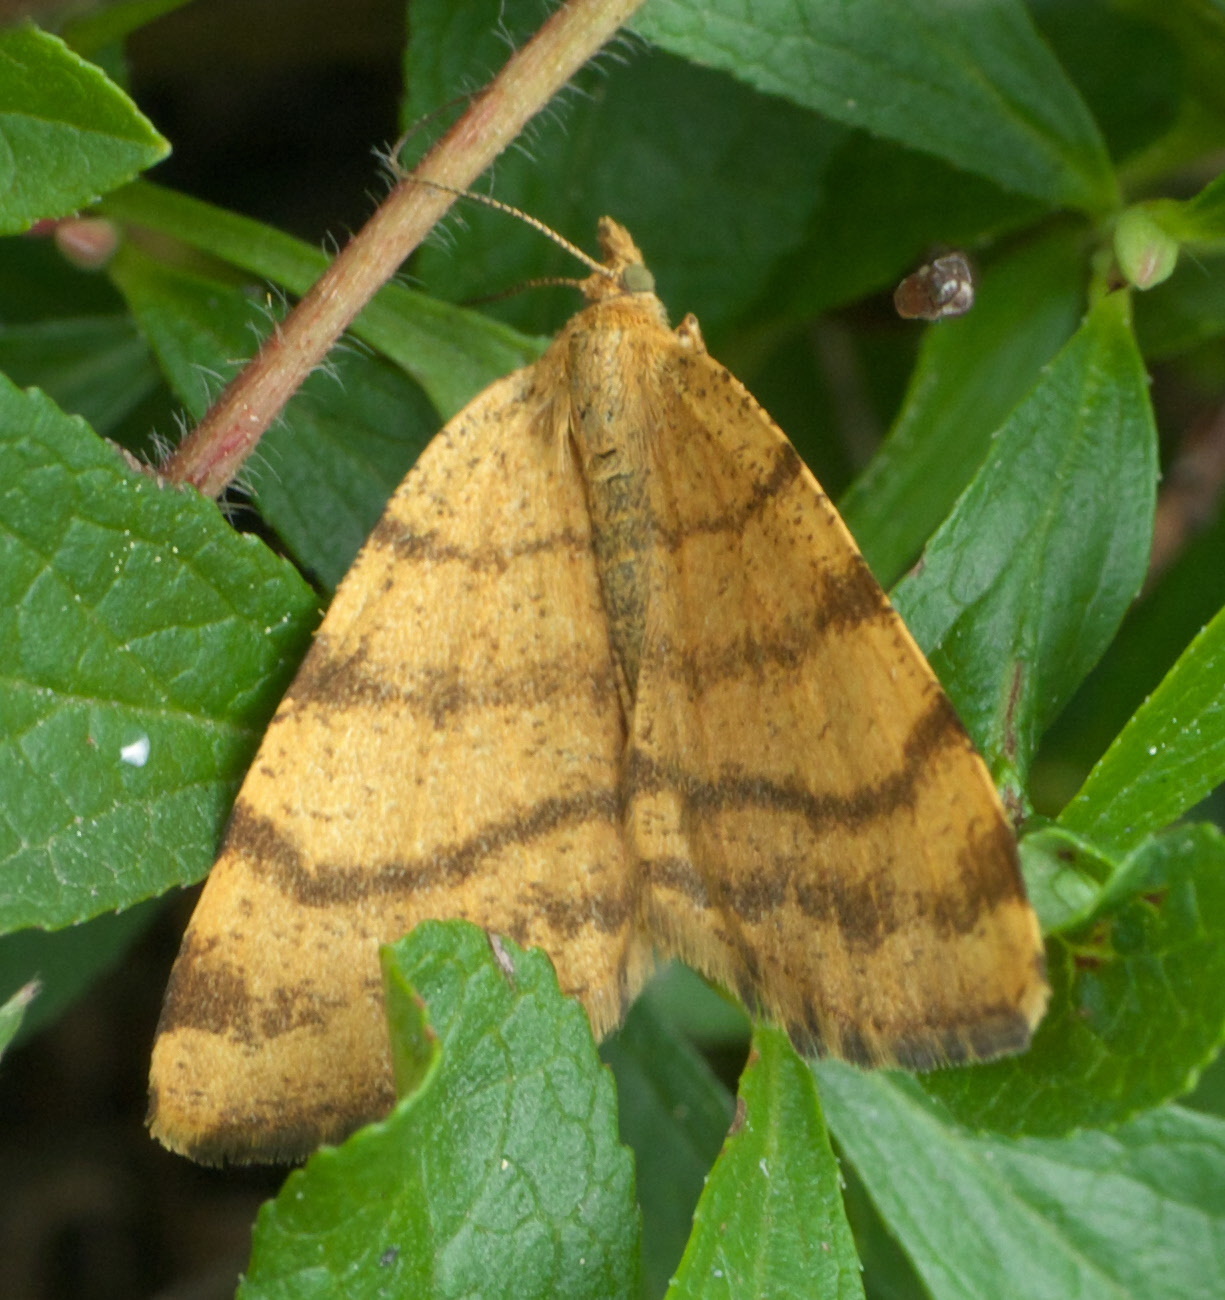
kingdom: Animalia
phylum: Arthropoda
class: Insecta
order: Lepidoptera
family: Geometridae
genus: Macaria
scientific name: Macaria brunneata
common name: Rannoch looper
